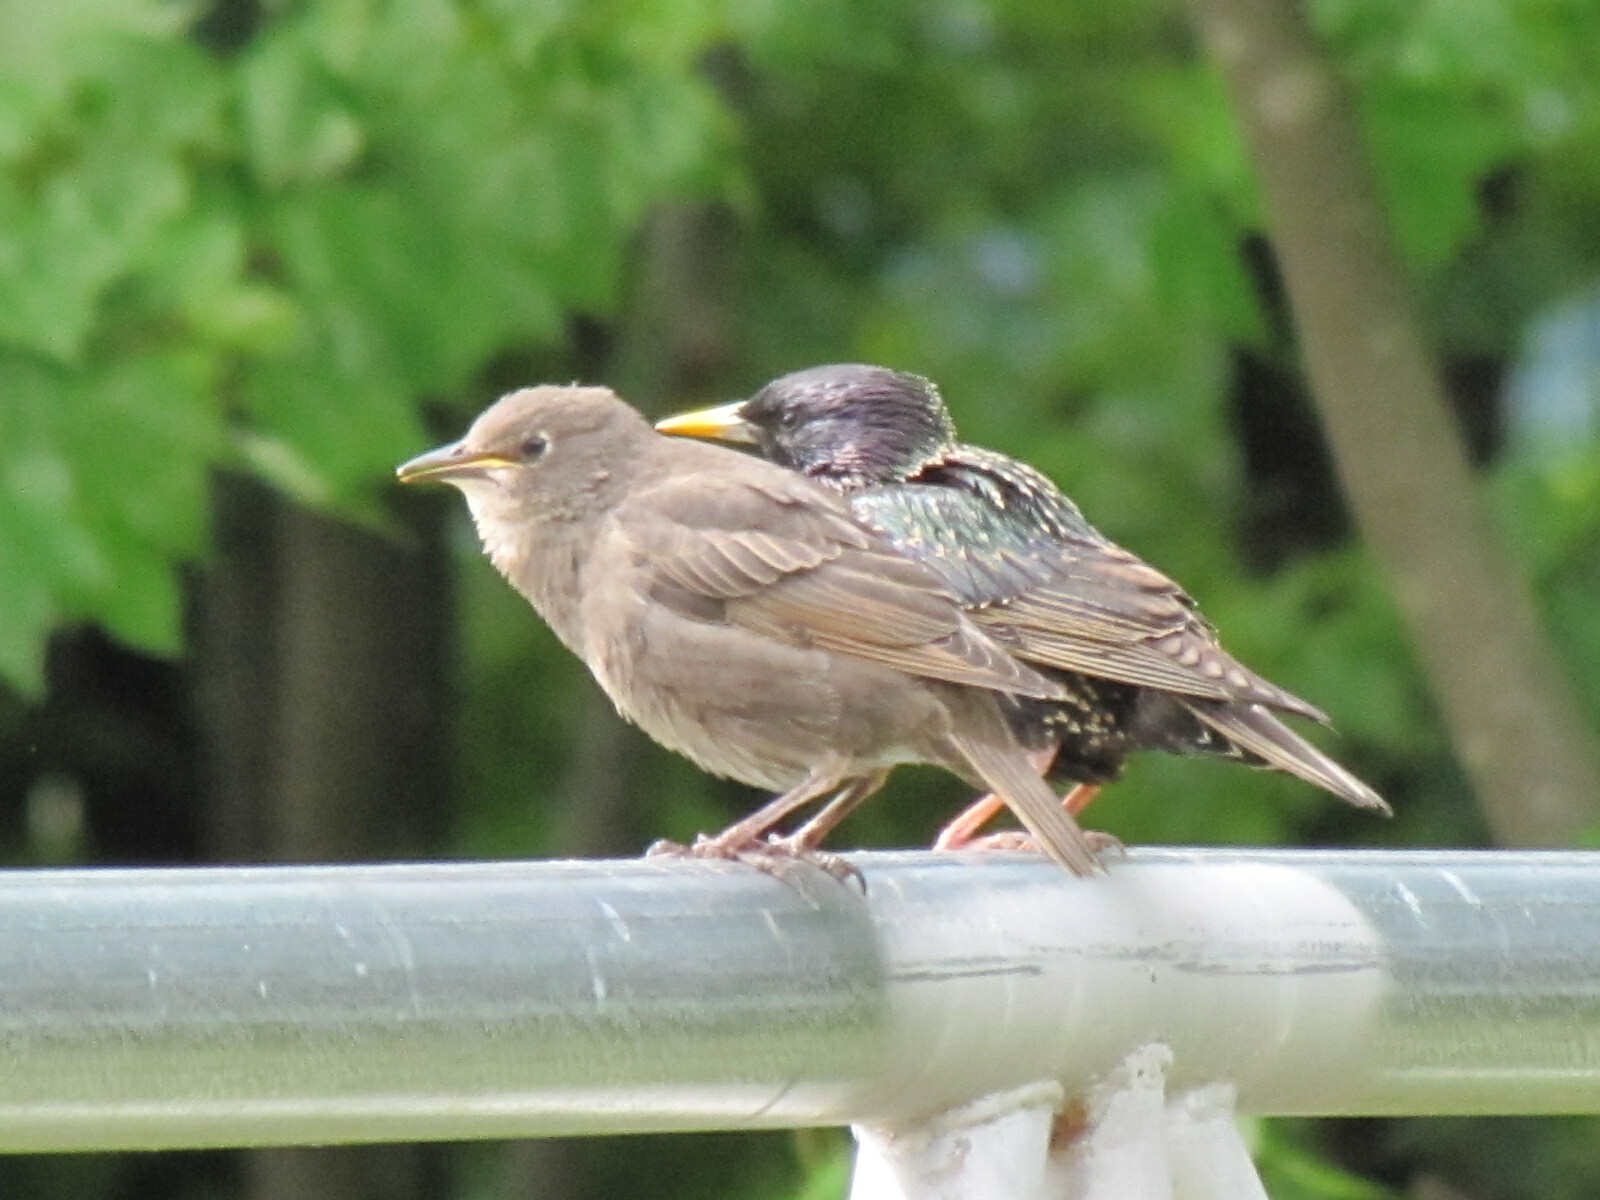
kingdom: Animalia
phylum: Chordata
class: Aves
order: Passeriformes
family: Sturnidae
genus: Sturnus
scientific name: Sturnus vulgaris
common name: Common starling
